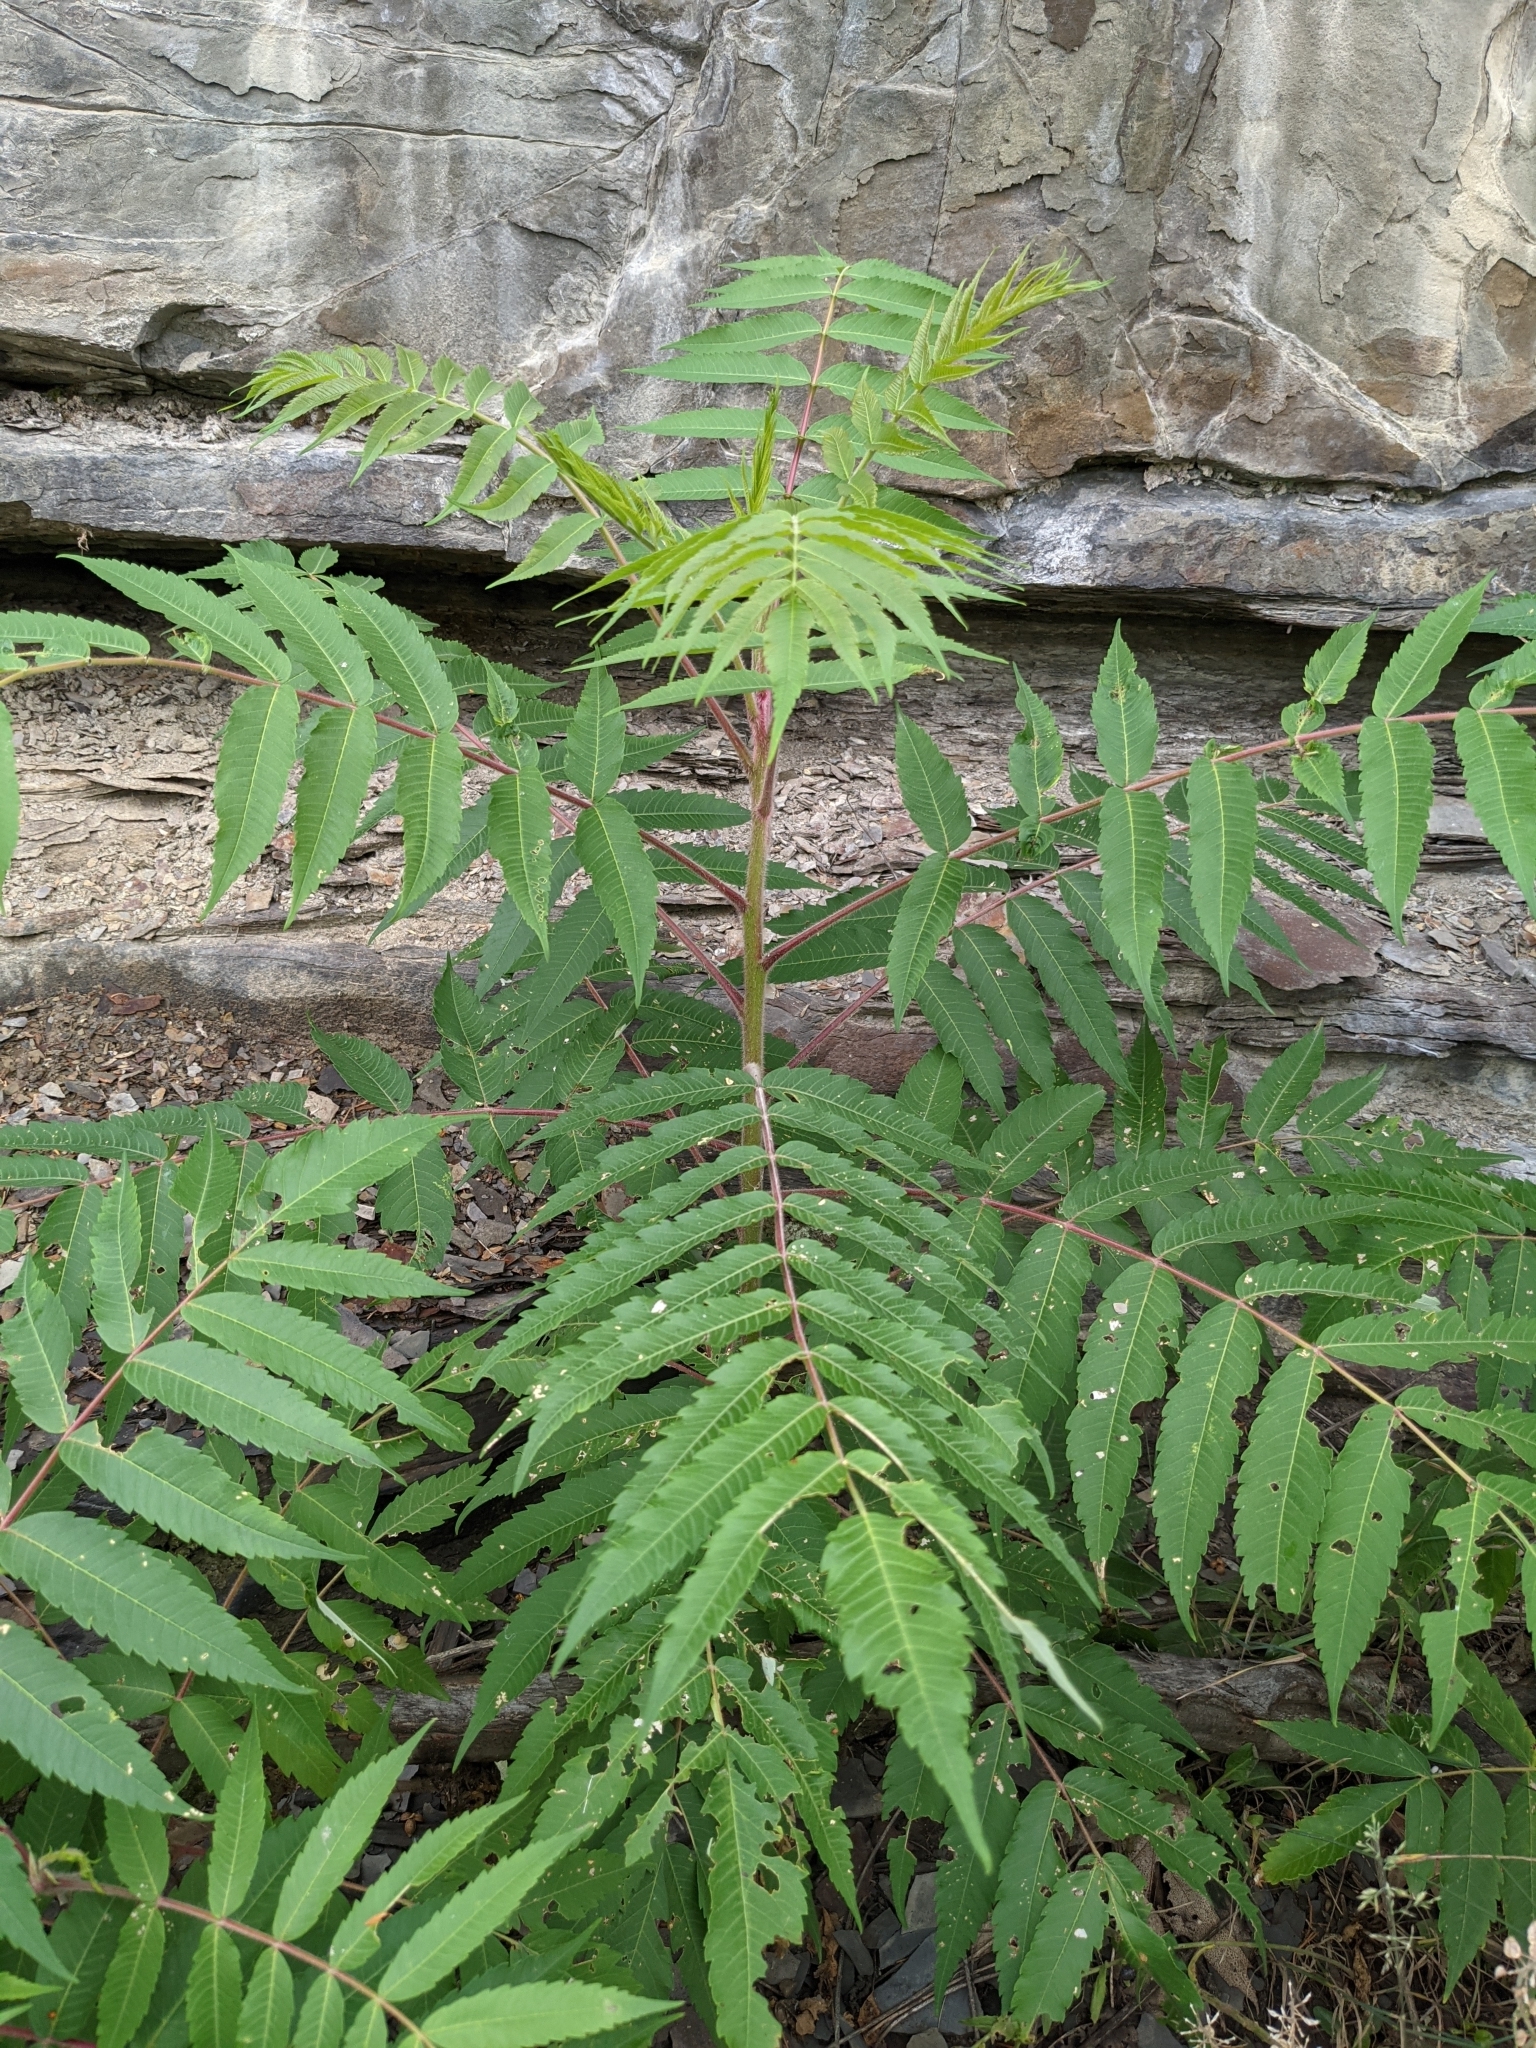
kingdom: Plantae
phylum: Tracheophyta
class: Magnoliopsida
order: Sapindales
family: Anacardiaceae
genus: Rhus
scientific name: Rhus typhina
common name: Staghorn sumac
